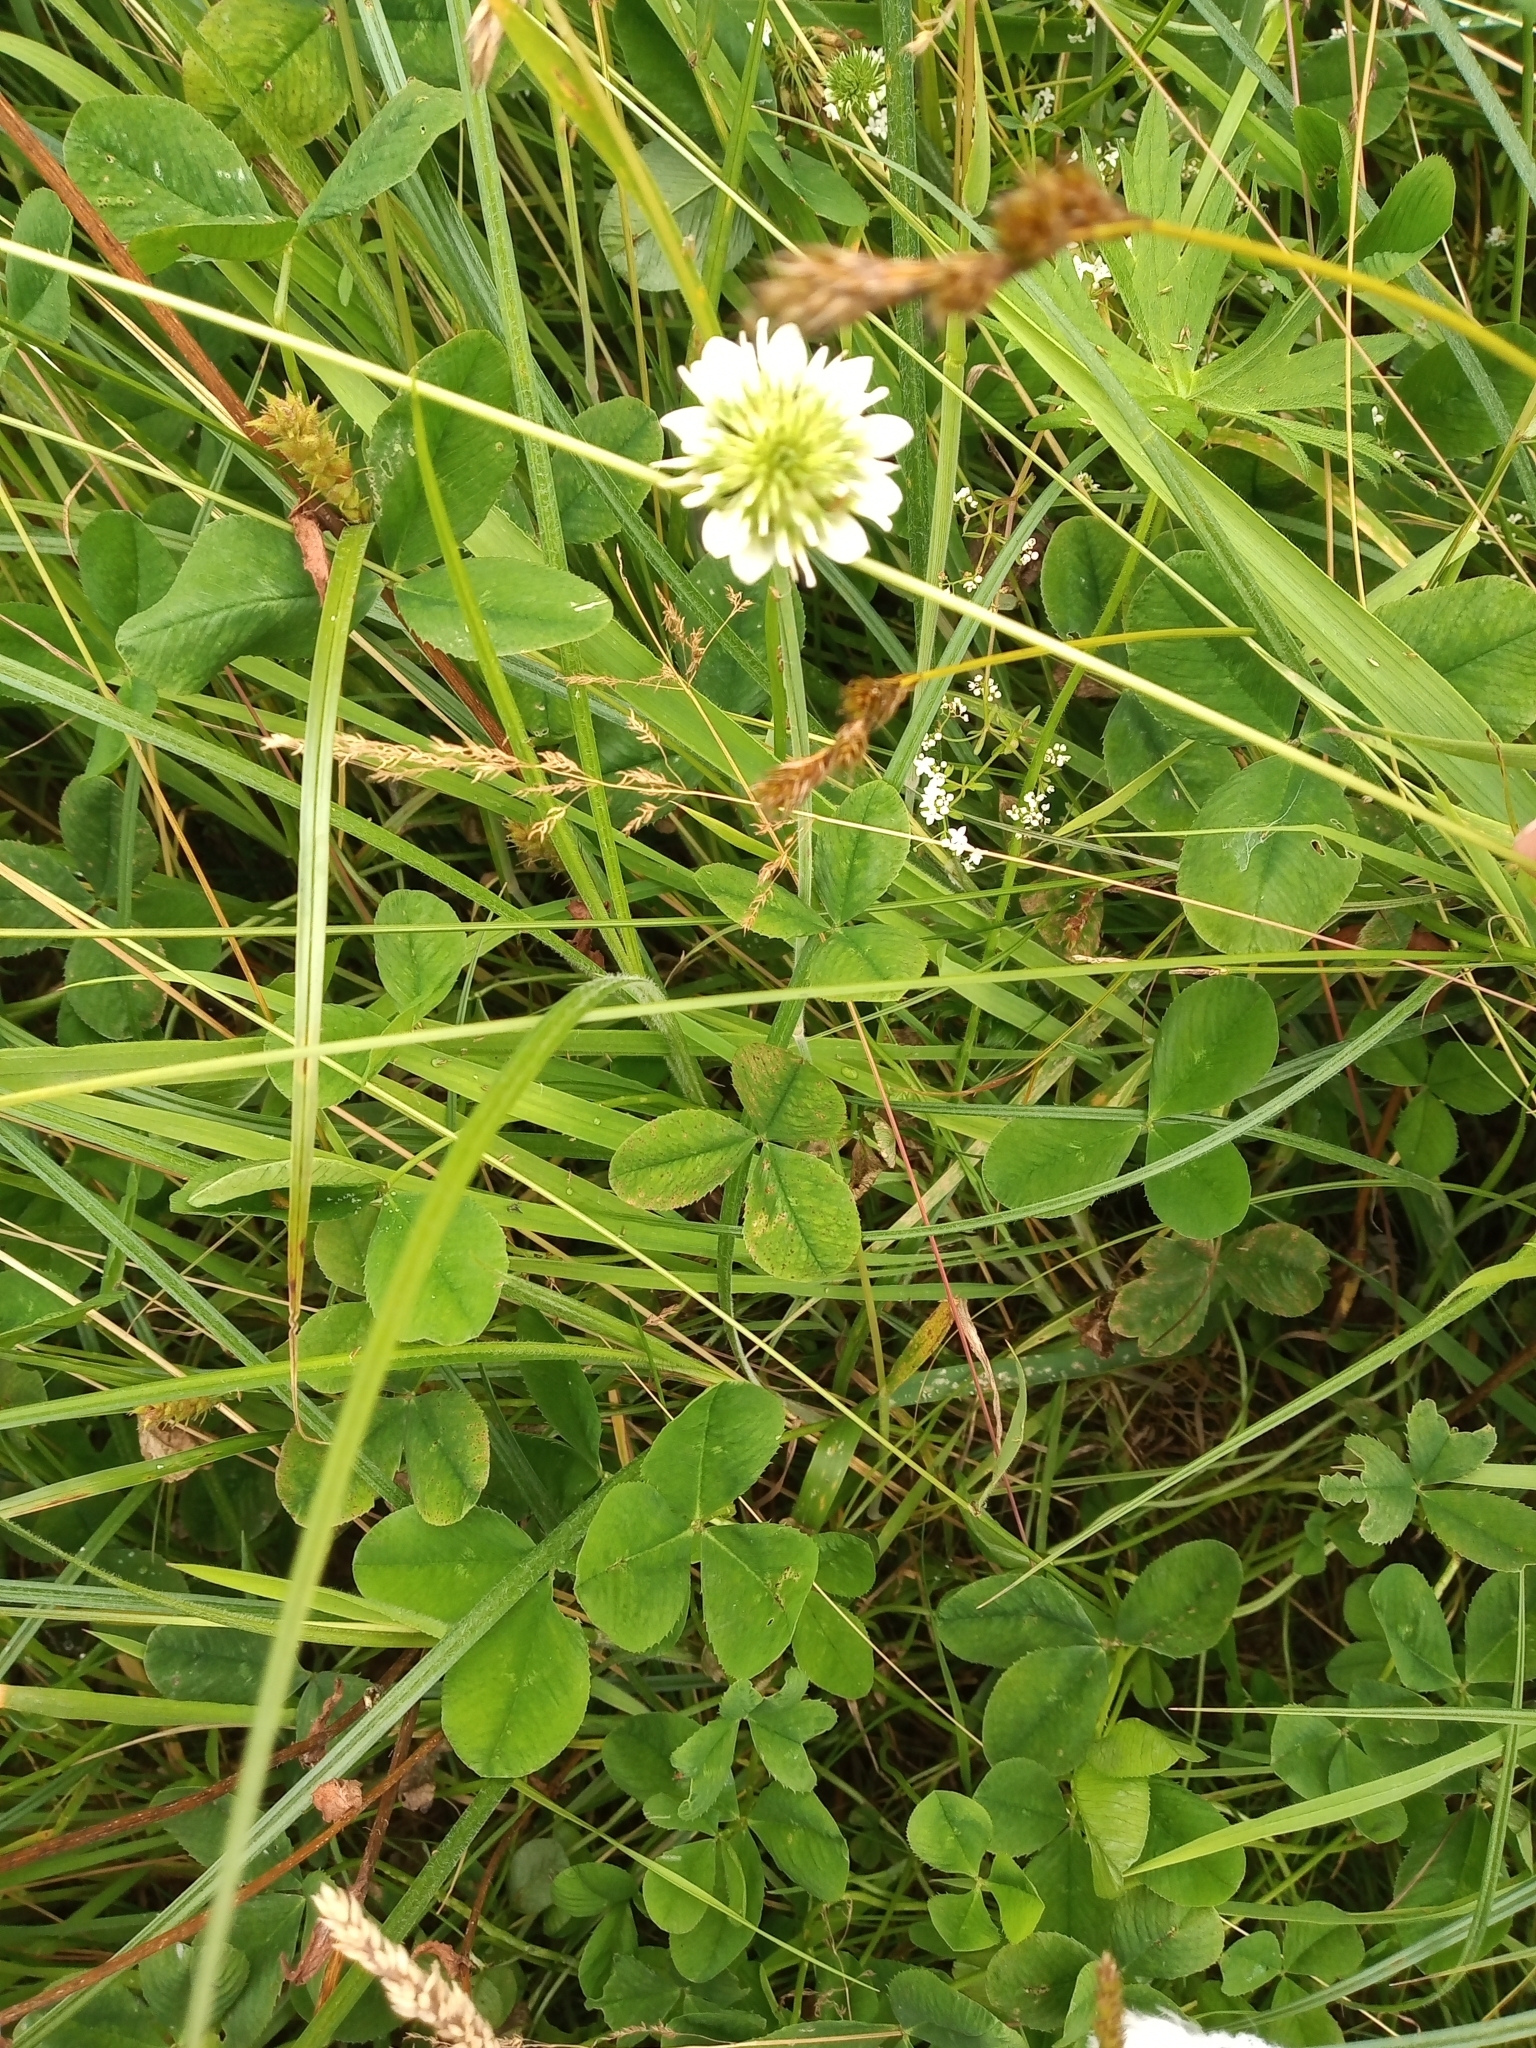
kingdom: Plantae
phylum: Tracheophyta
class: Magnoliopsida
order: Fabales
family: Fabaceae
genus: Trifolium
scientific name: Trifolium repens
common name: White clover
